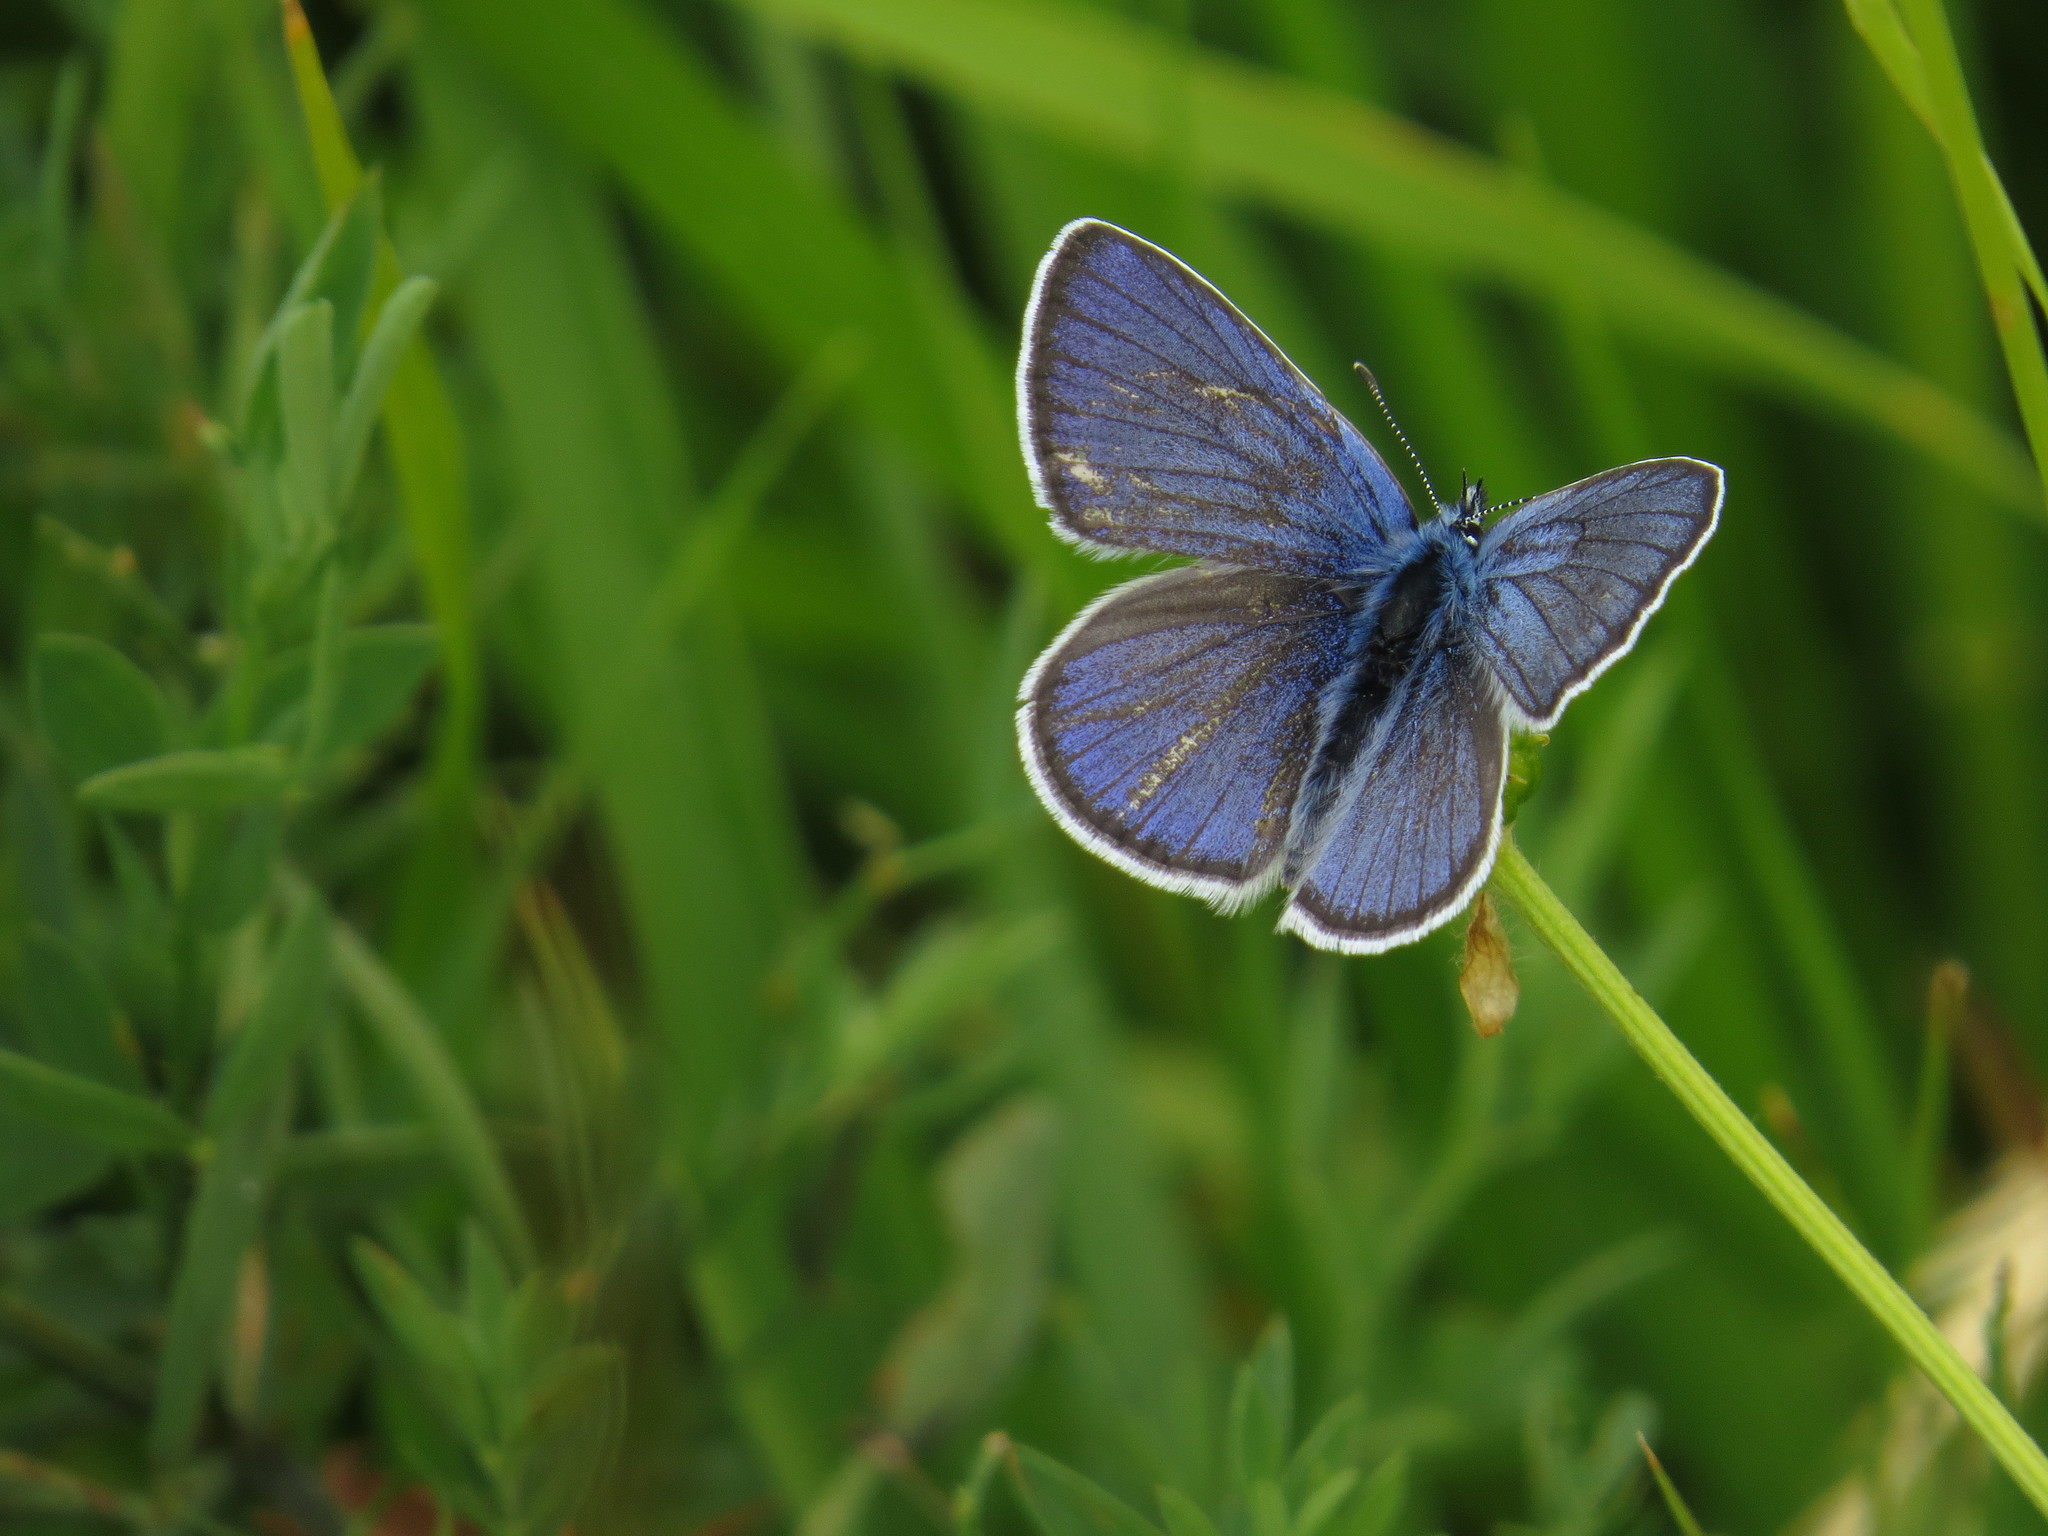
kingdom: Animalia
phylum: Arthropoda
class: Insecta
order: Lepidoptera
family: Lycaenidae
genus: Cyaniris
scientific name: Cyaniris semiargus
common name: Mazarine blue
